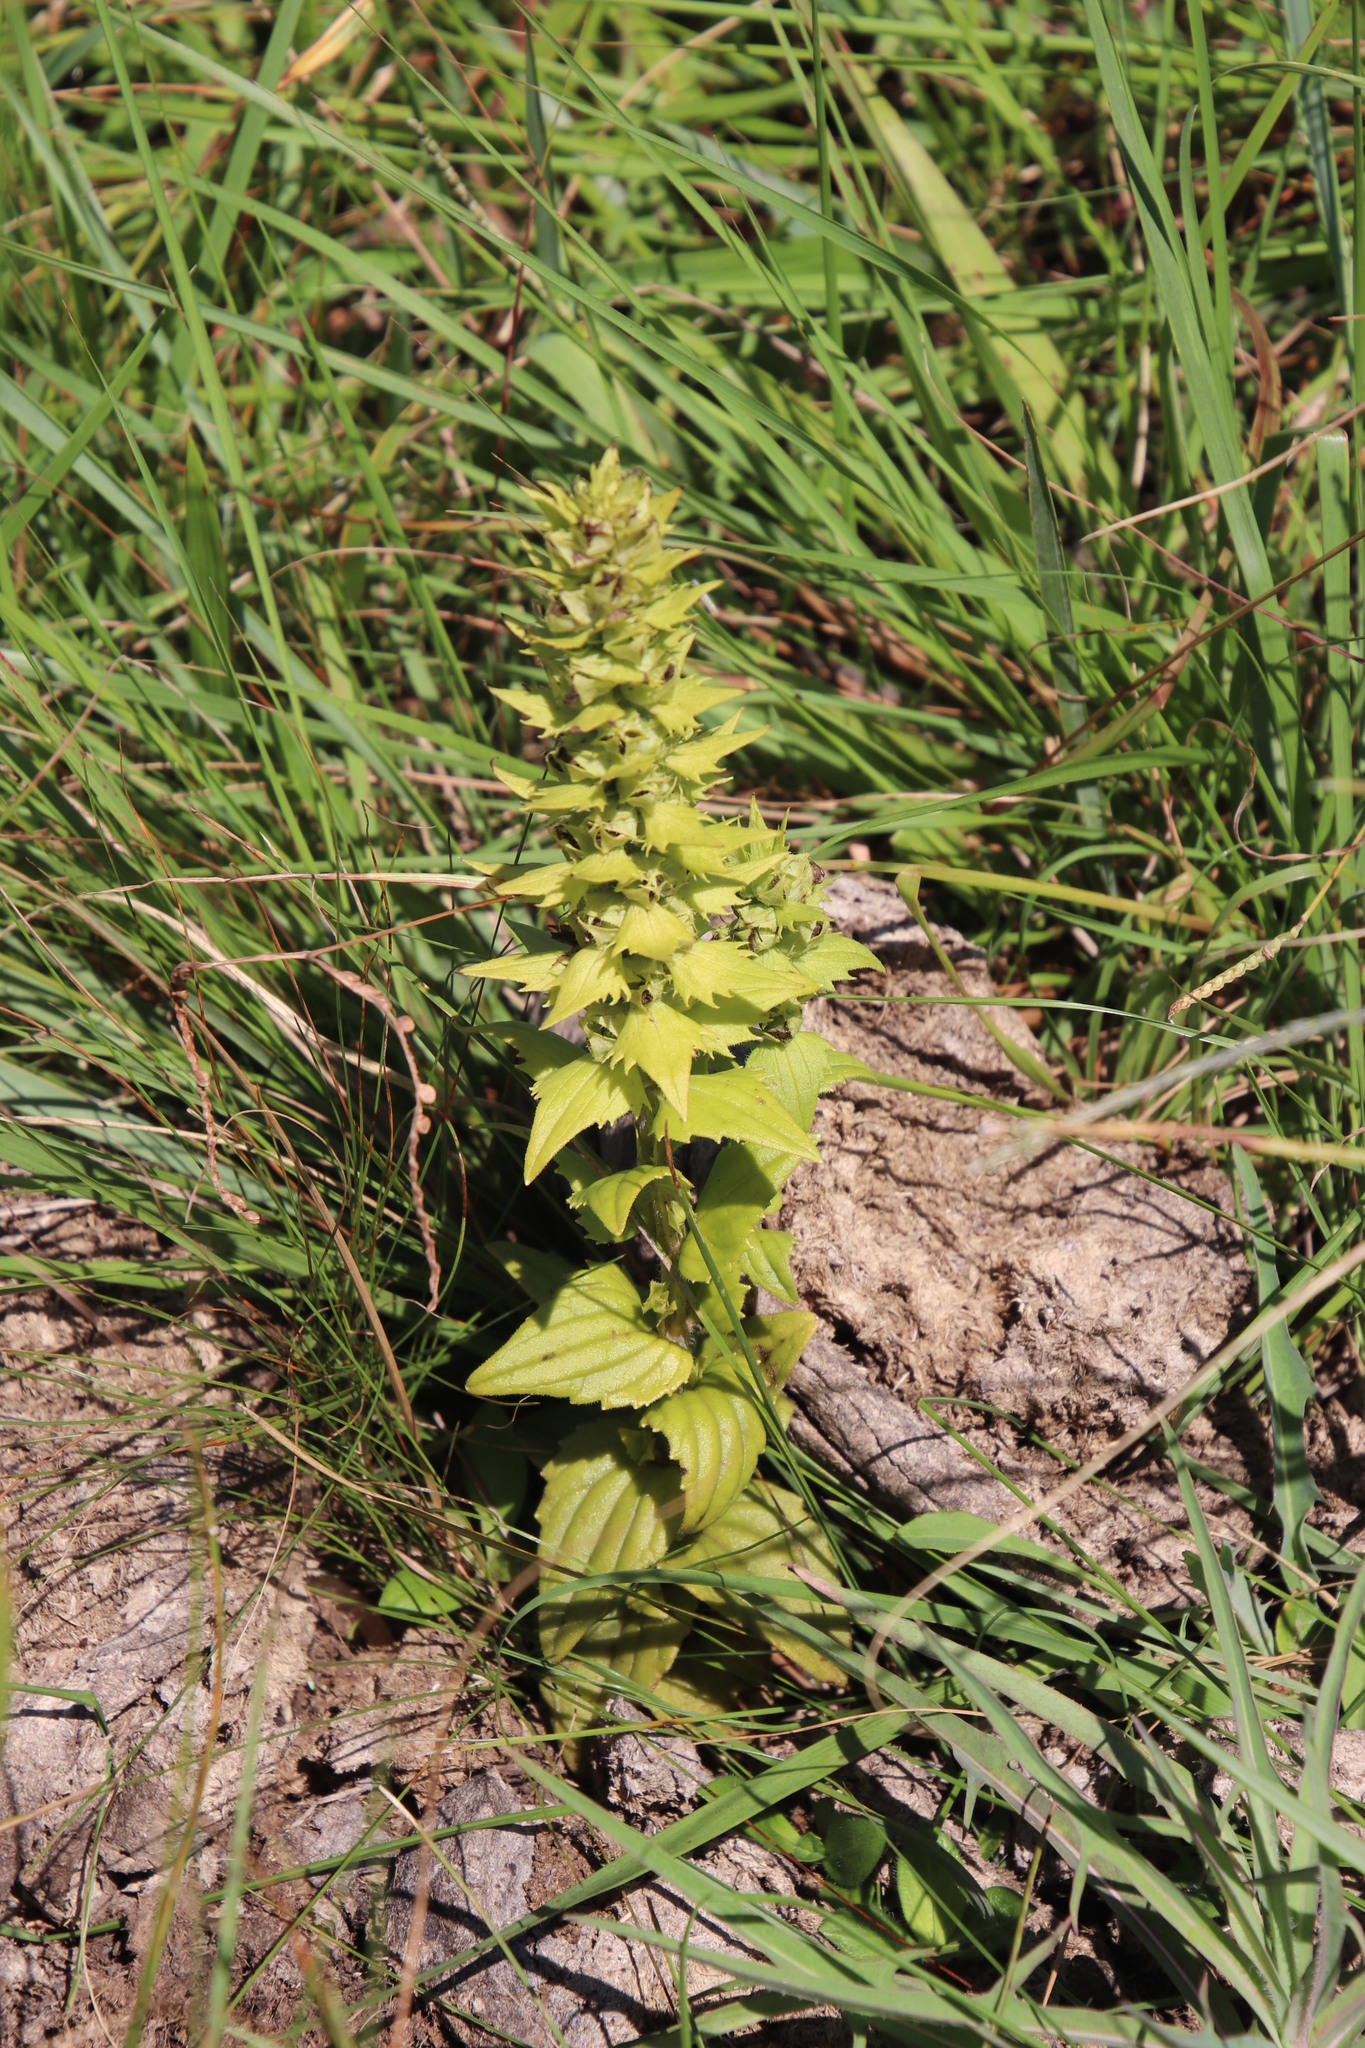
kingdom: Plantae
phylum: Tracheophyta
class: Magnoliopsida
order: Lamiales
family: Orobanchaceae
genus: Alectra
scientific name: Alectra sessiliflora
